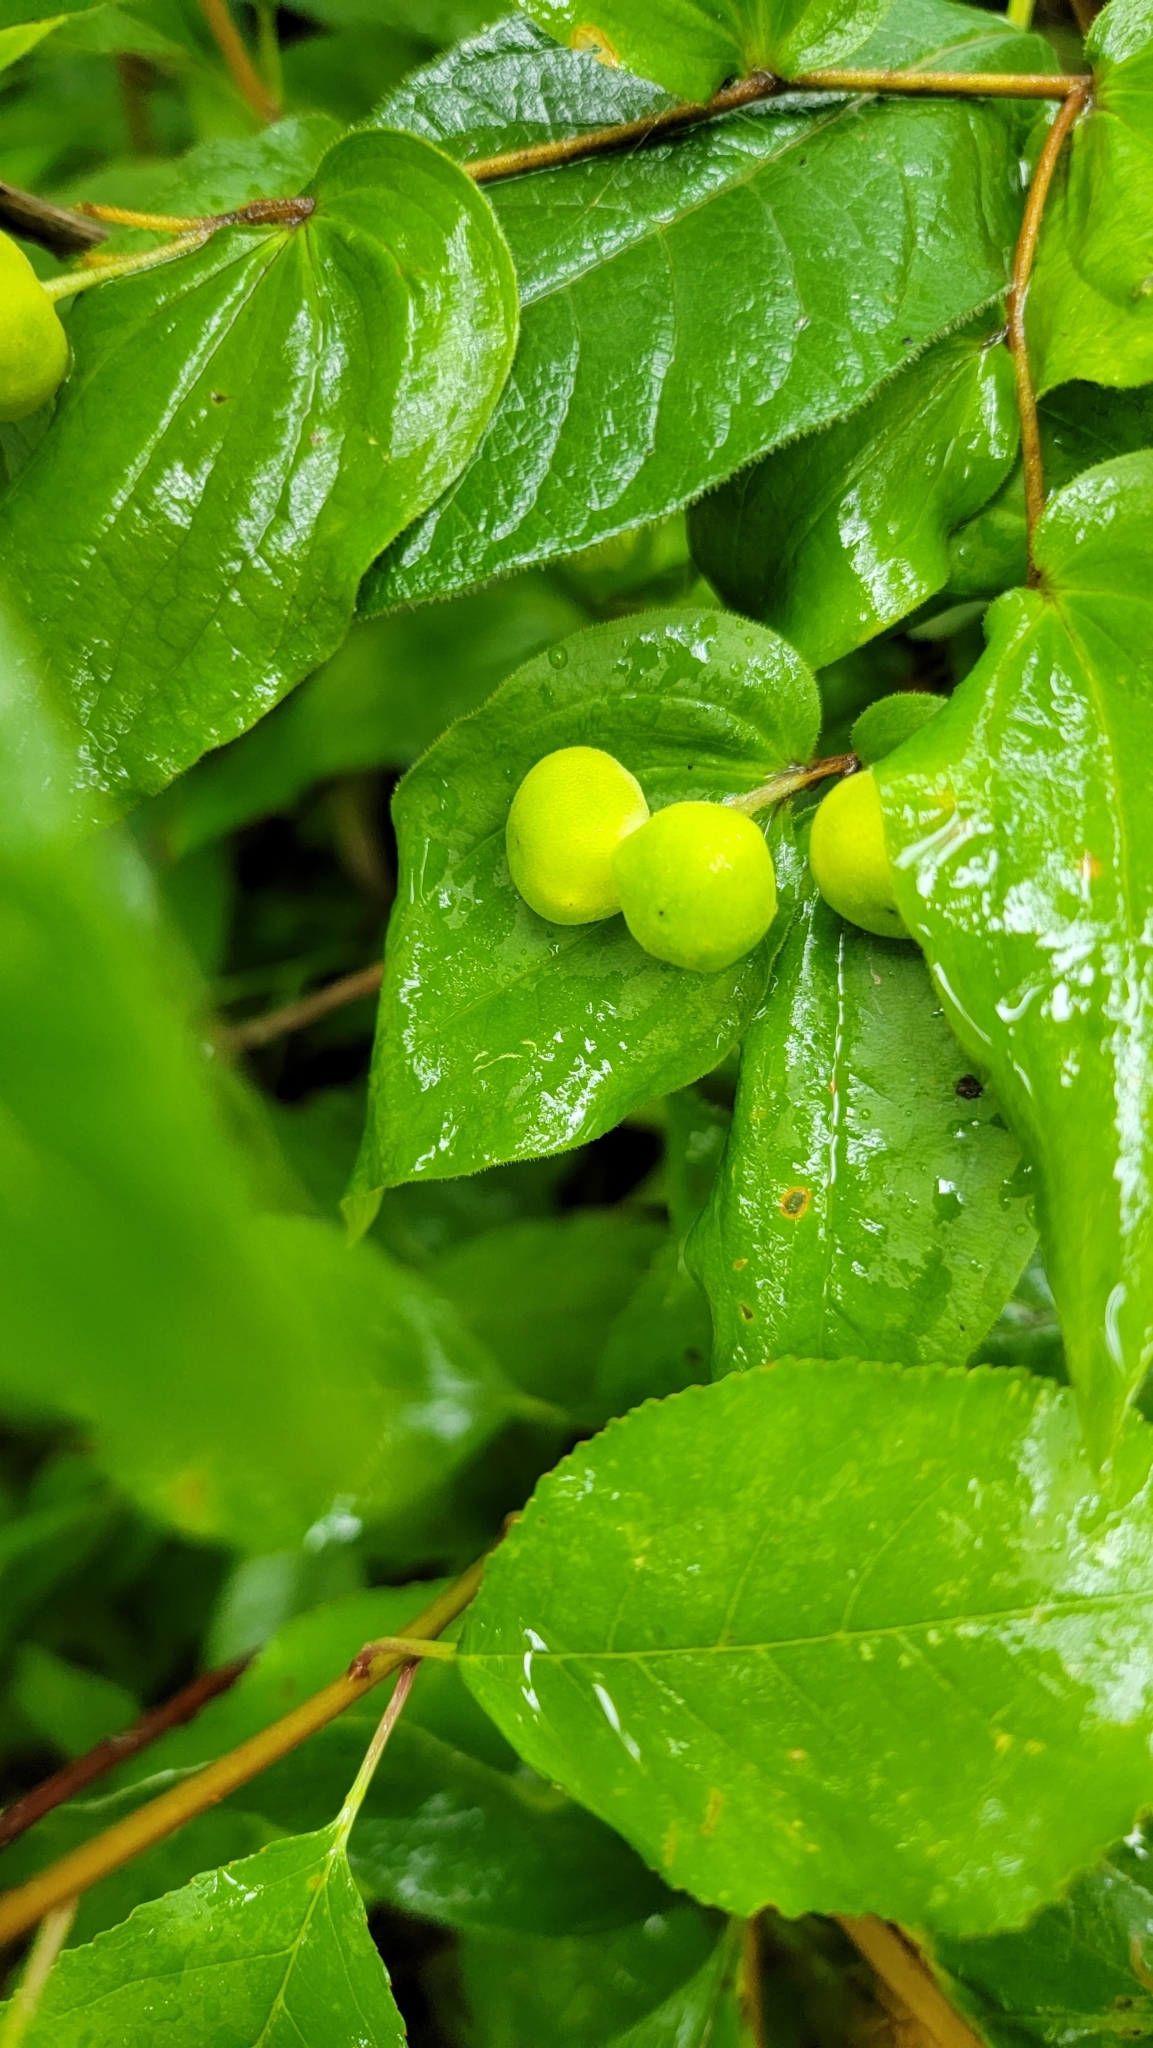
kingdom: Plantae
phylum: Tracheophyta
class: Liliopsida
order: Liliales
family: Liliaceae
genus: Prosartes
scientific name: Prosartes trachycarpa
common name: Rough-fruit fairy-bells
